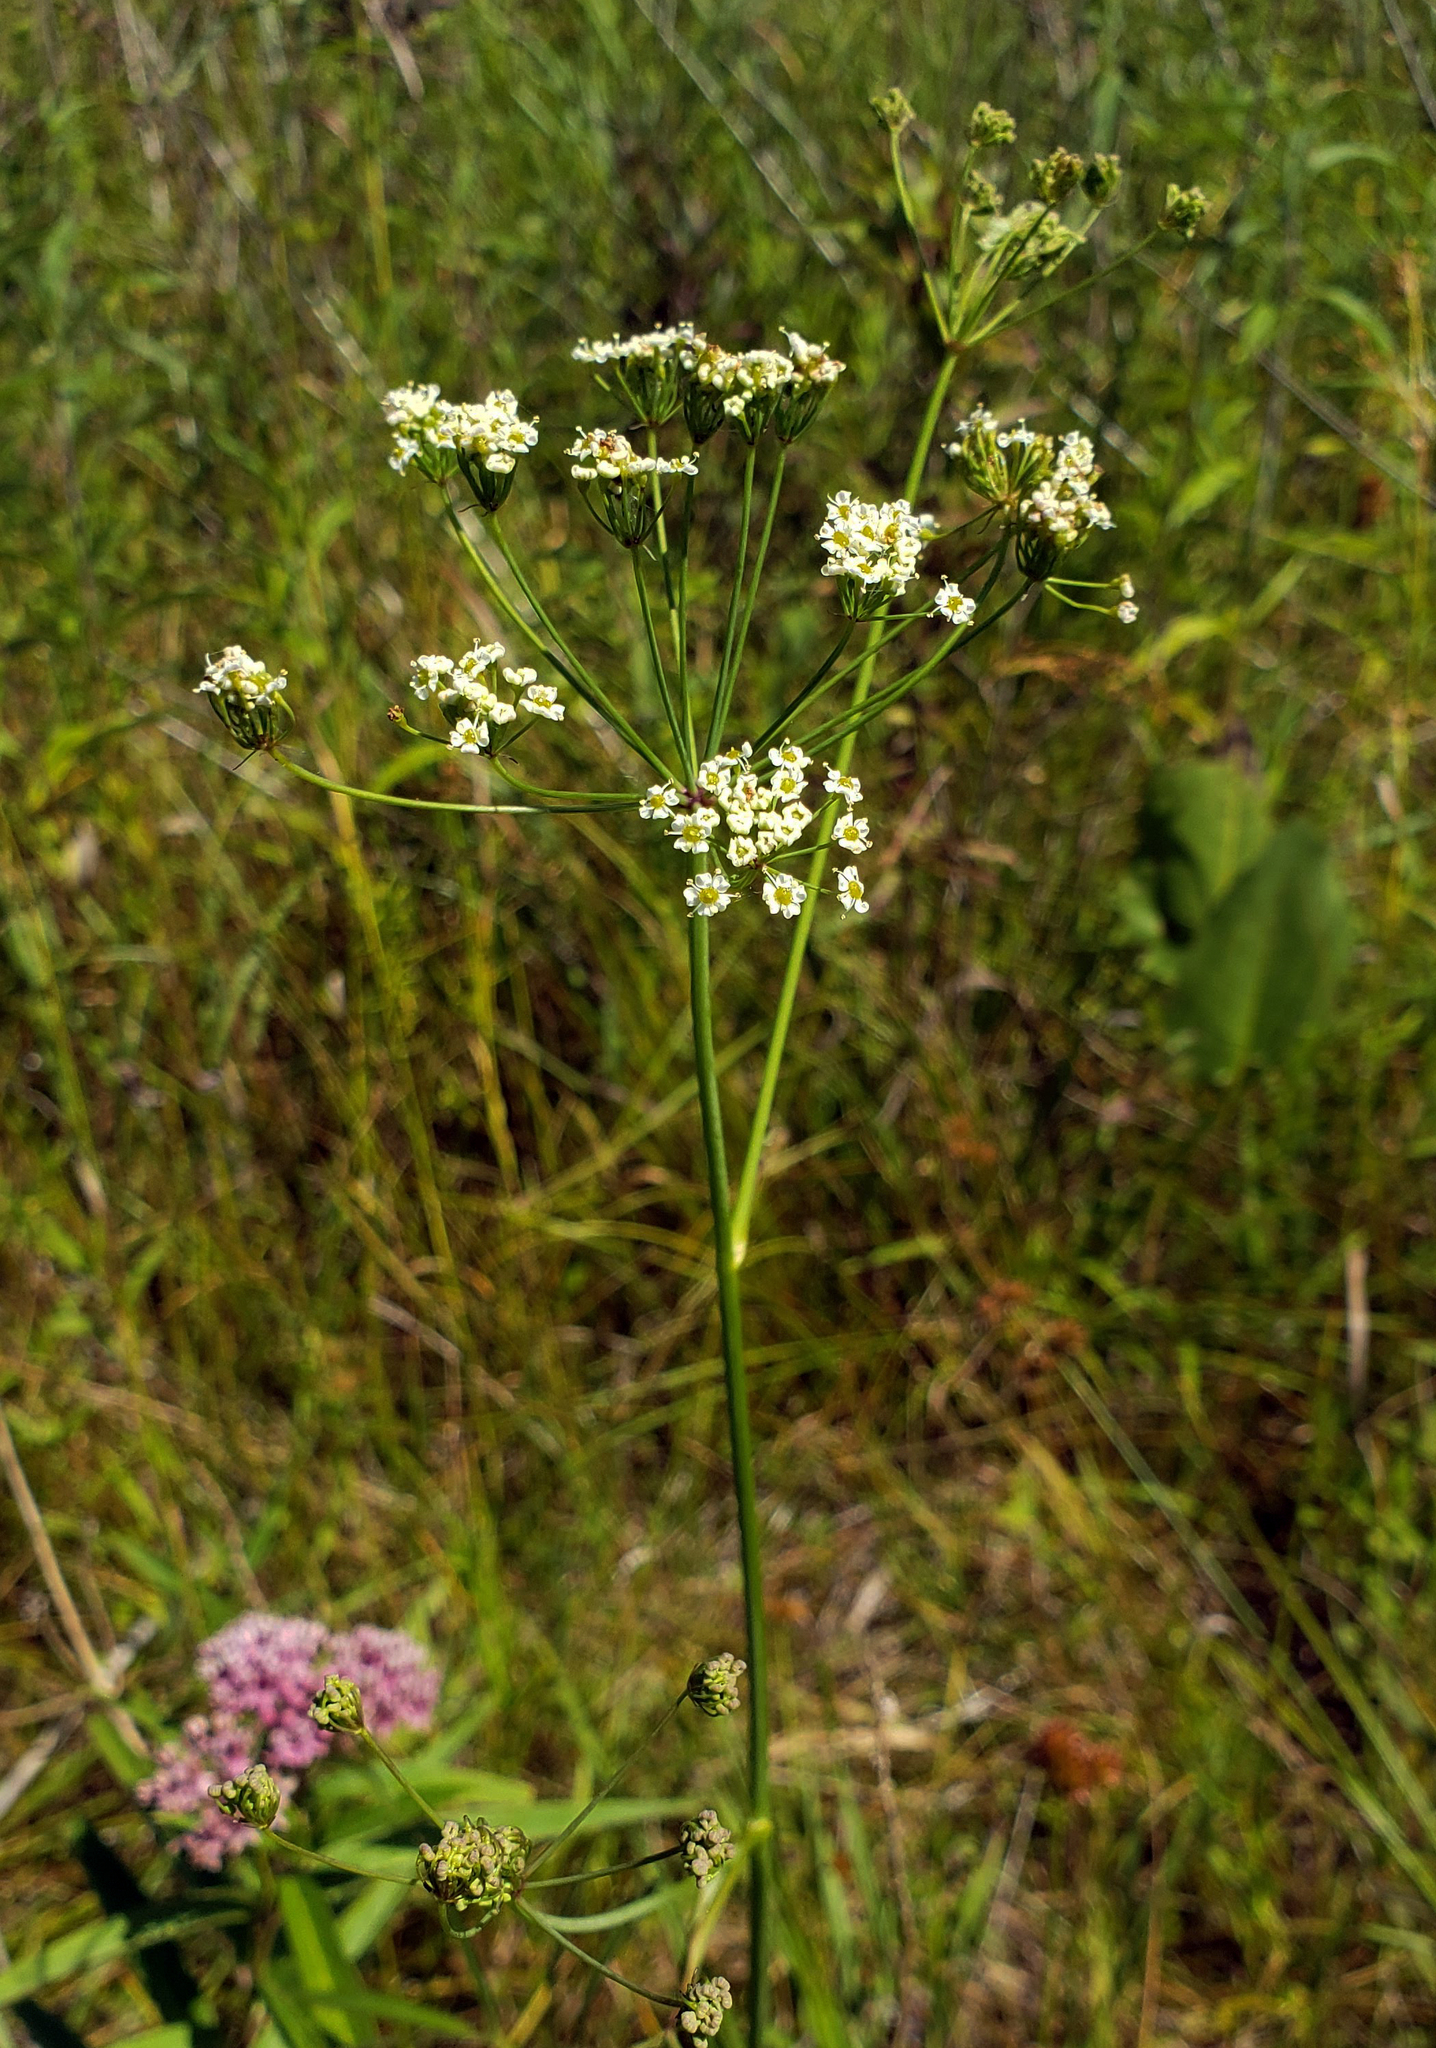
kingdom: Plantae
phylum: Tracheophyta
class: Magnoliopsida
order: Apiales
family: Apiaceae
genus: Oxypolis
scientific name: Oxypolis rigidior
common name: Cowbane
